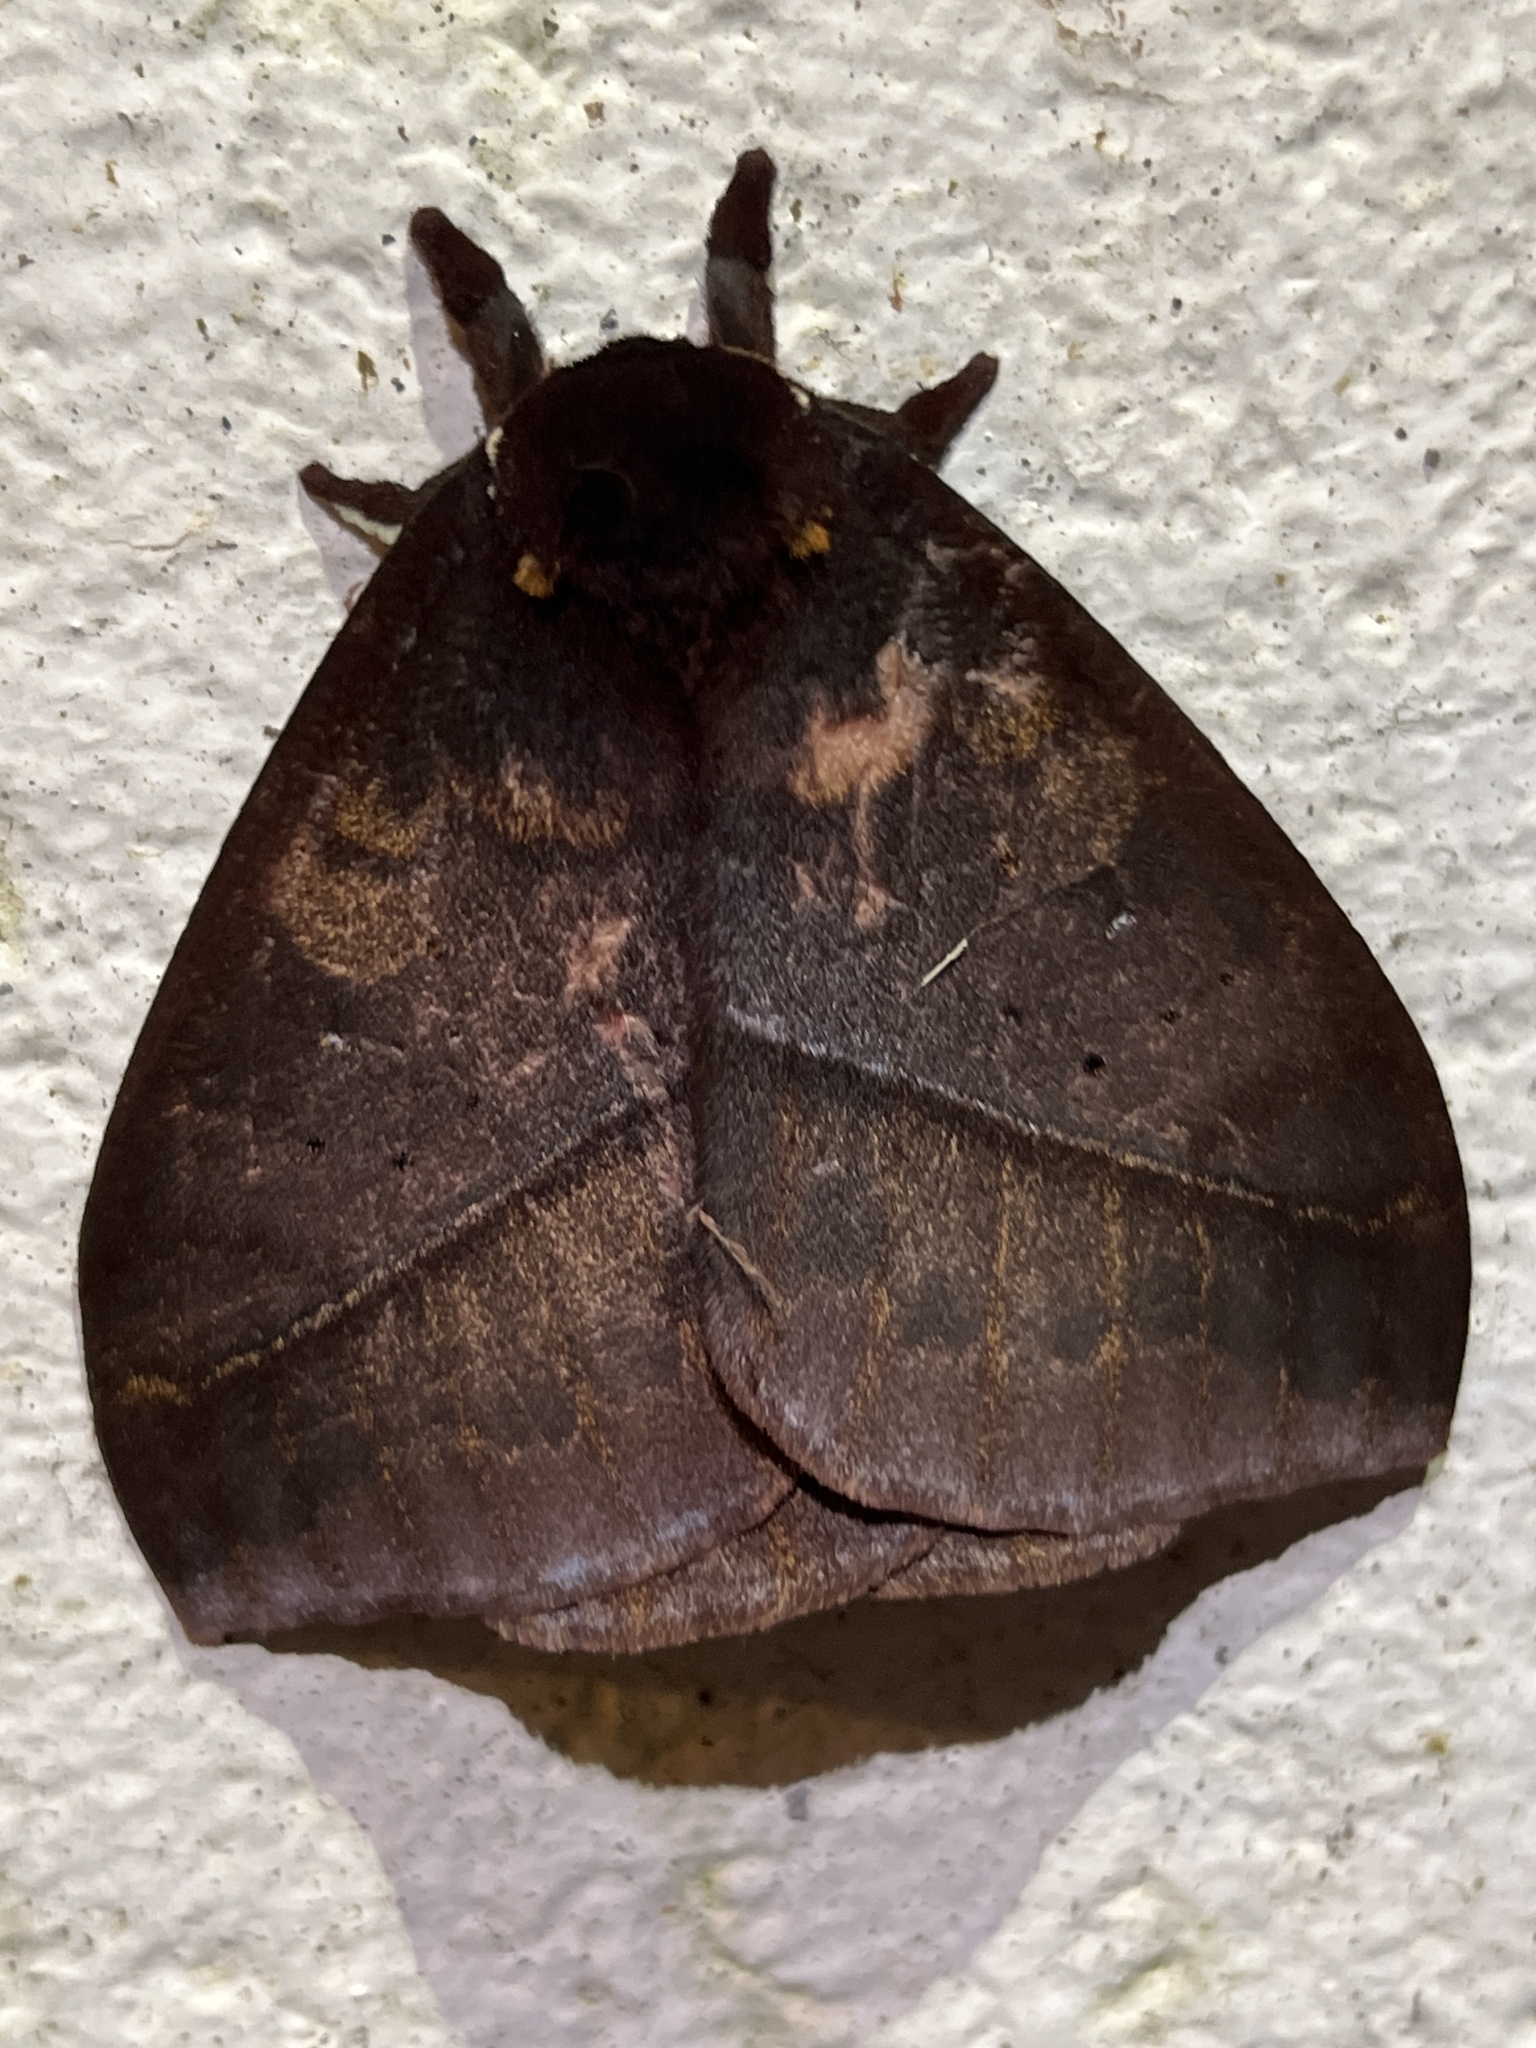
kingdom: Animalia
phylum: Arthropoda
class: Insecta
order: Lepidoptera
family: Saturniidae
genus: Automeris
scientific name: Automeris postalbida
